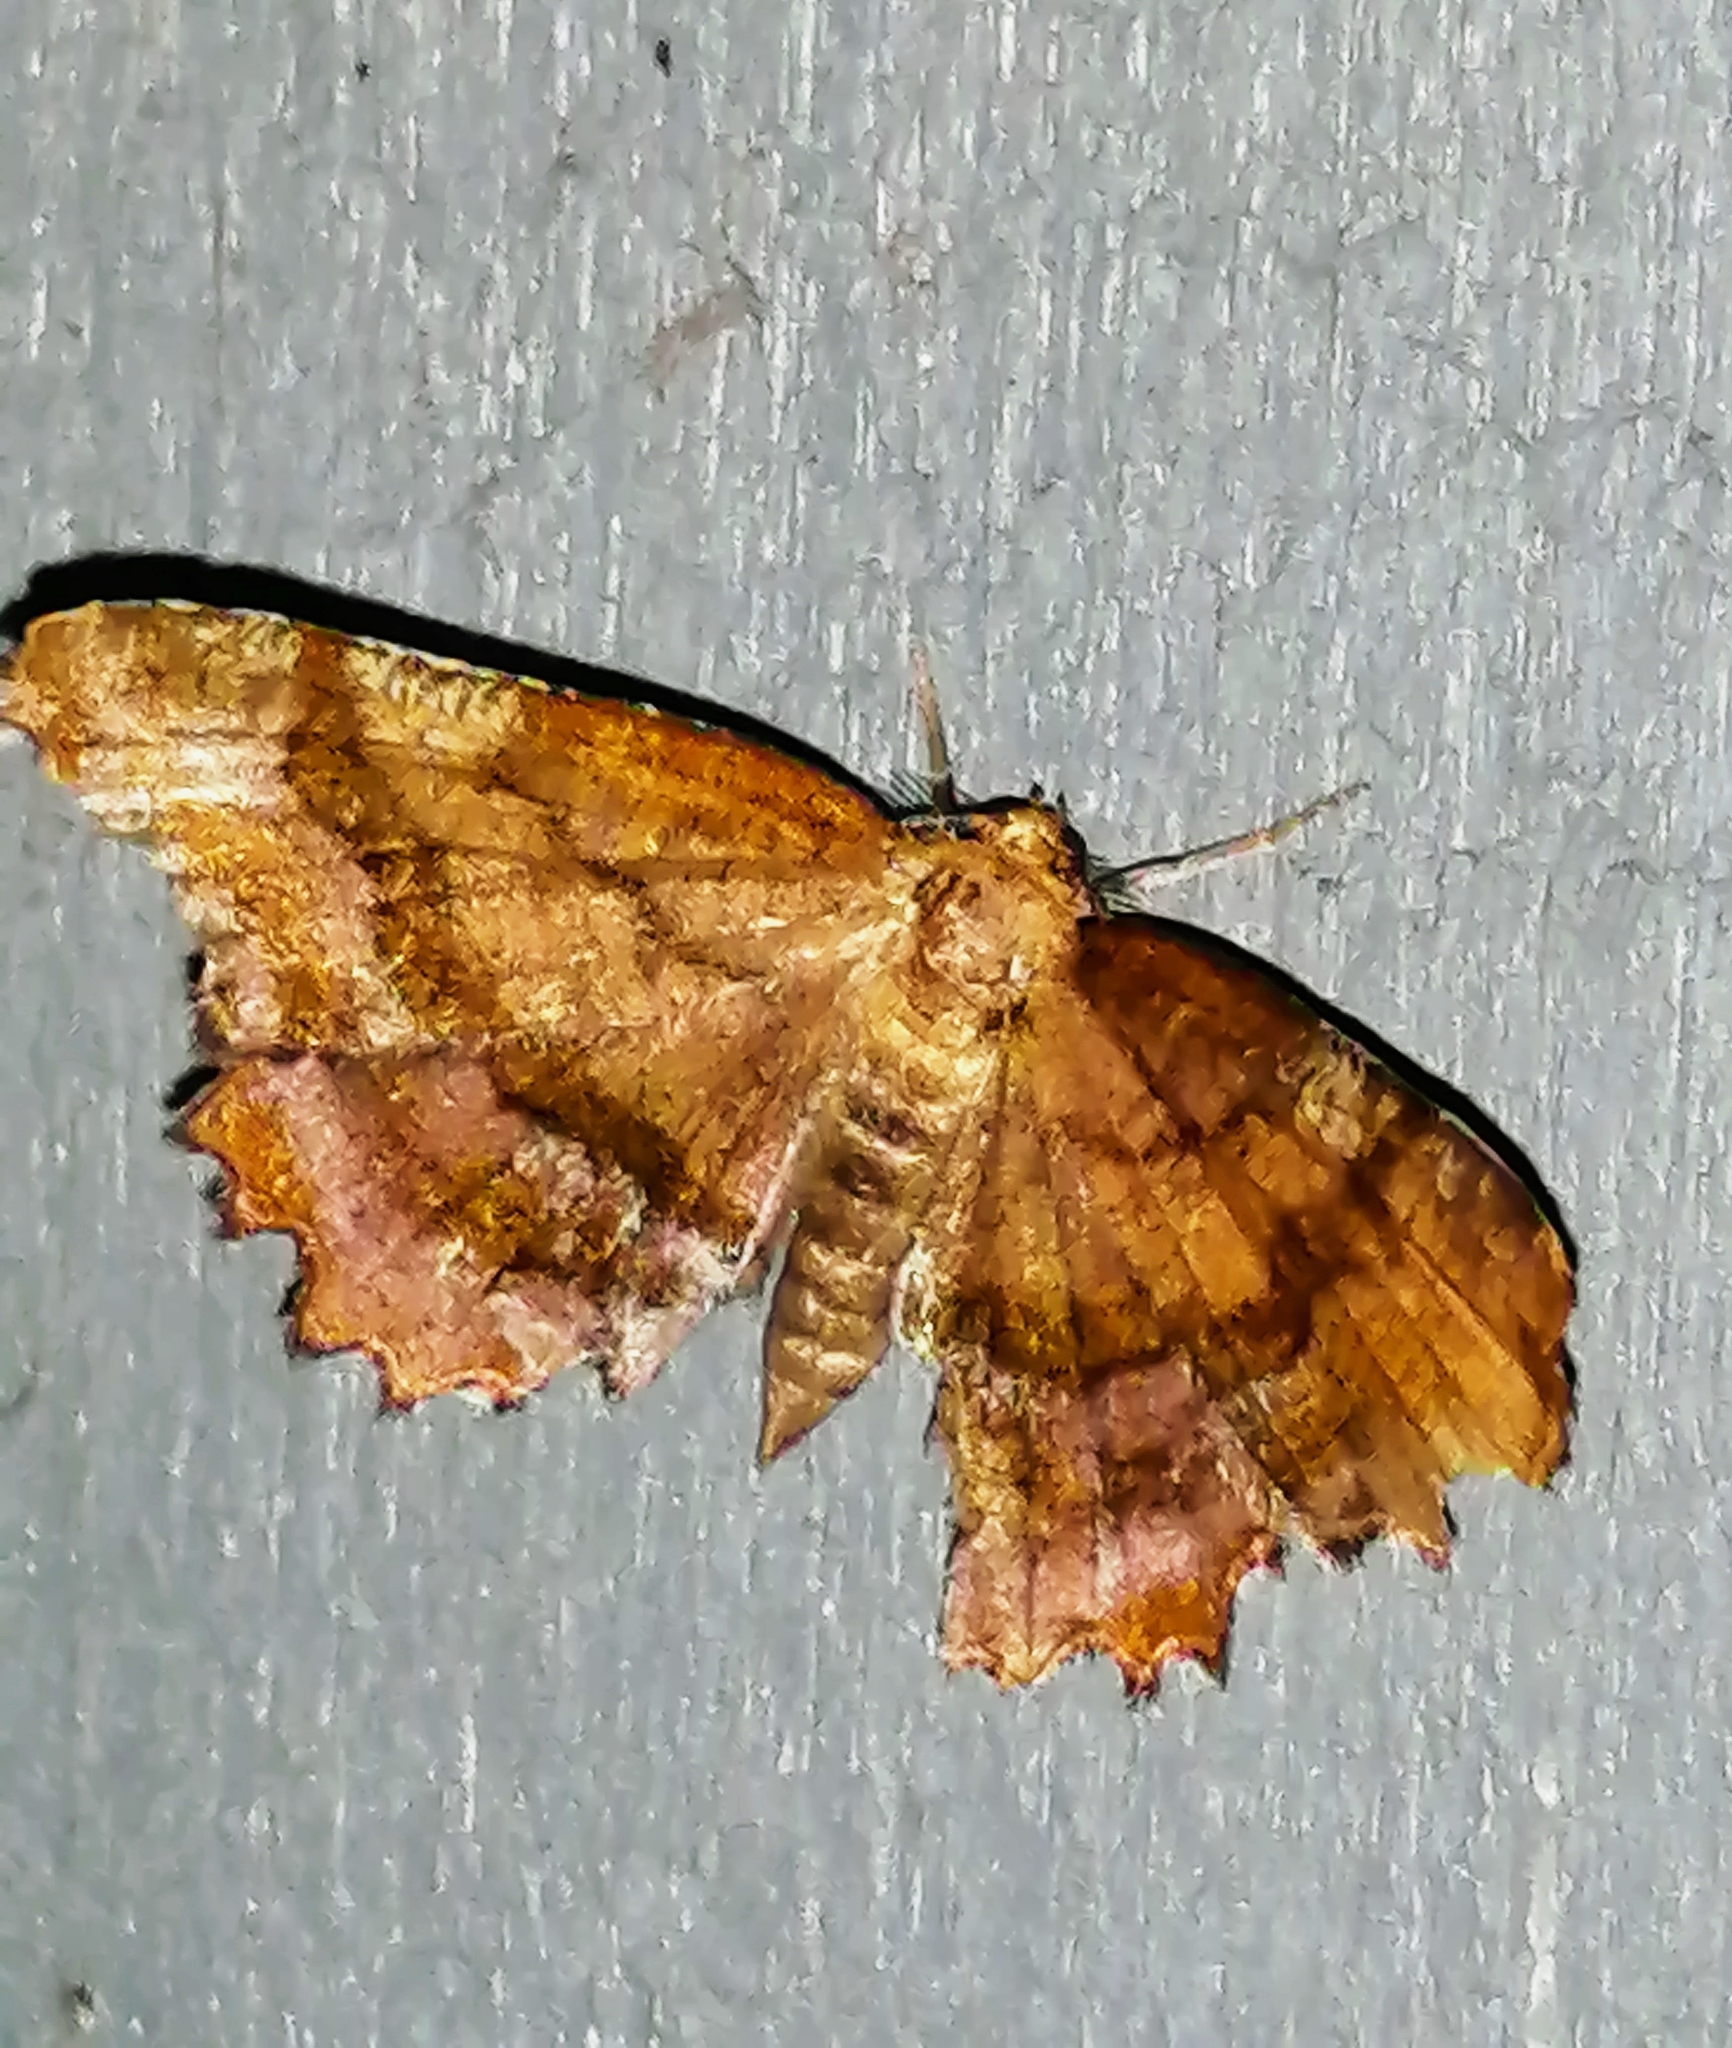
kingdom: Animalia
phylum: Arthropoda
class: Insecta
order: Lepidoptera
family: Geometridae
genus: Cepphis
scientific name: Cepphis armataria
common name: Scallop moth
